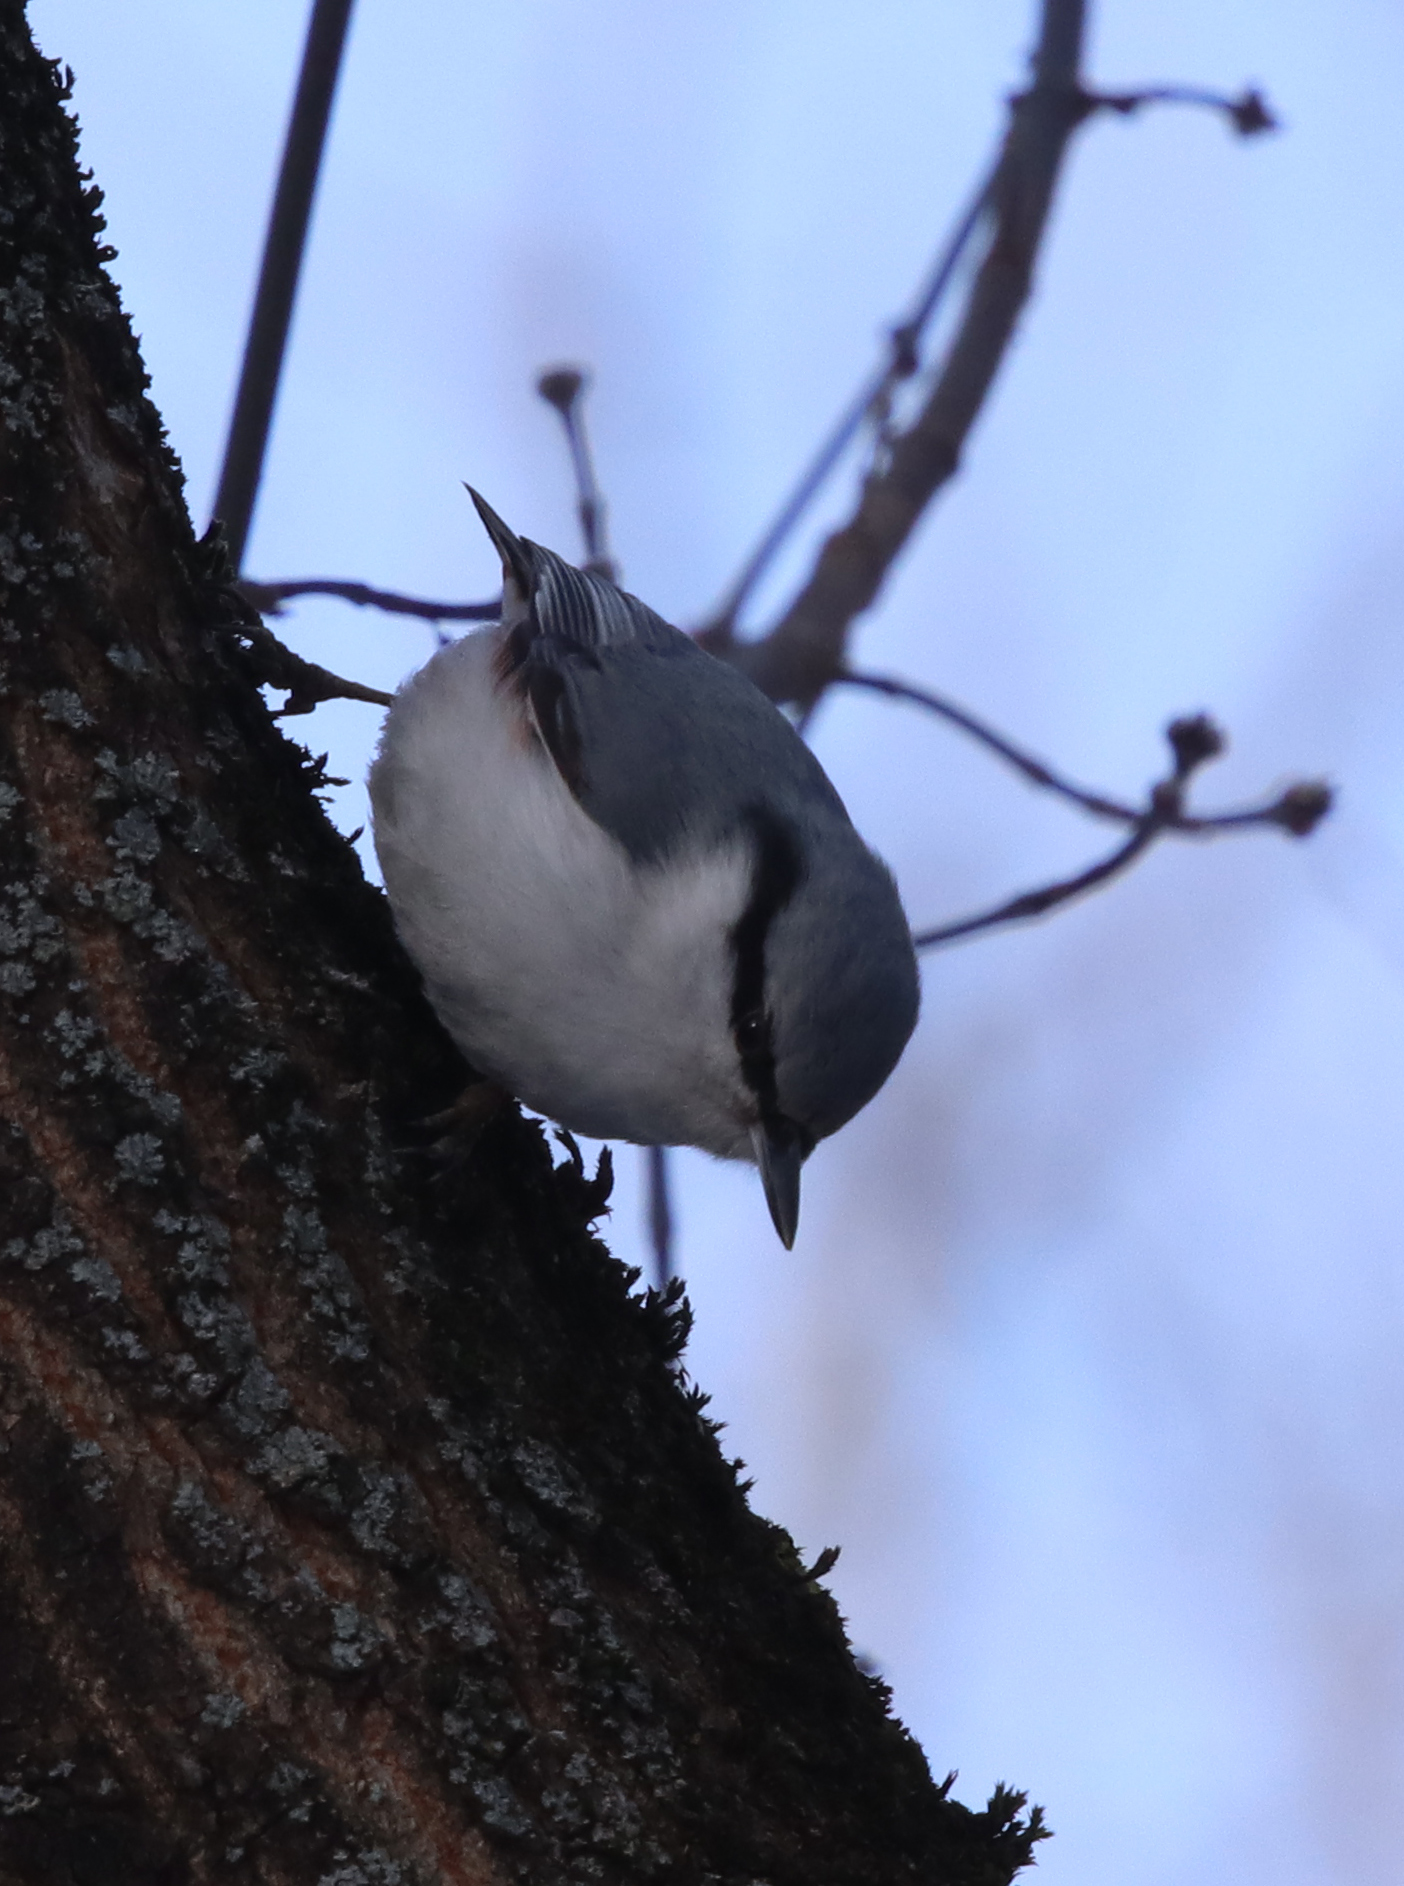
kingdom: Animalia
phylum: Chordata
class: Aves
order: Passeriformes
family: Sittidae
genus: Sitta
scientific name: Sitta europaea
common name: Eurasian nuthatch
